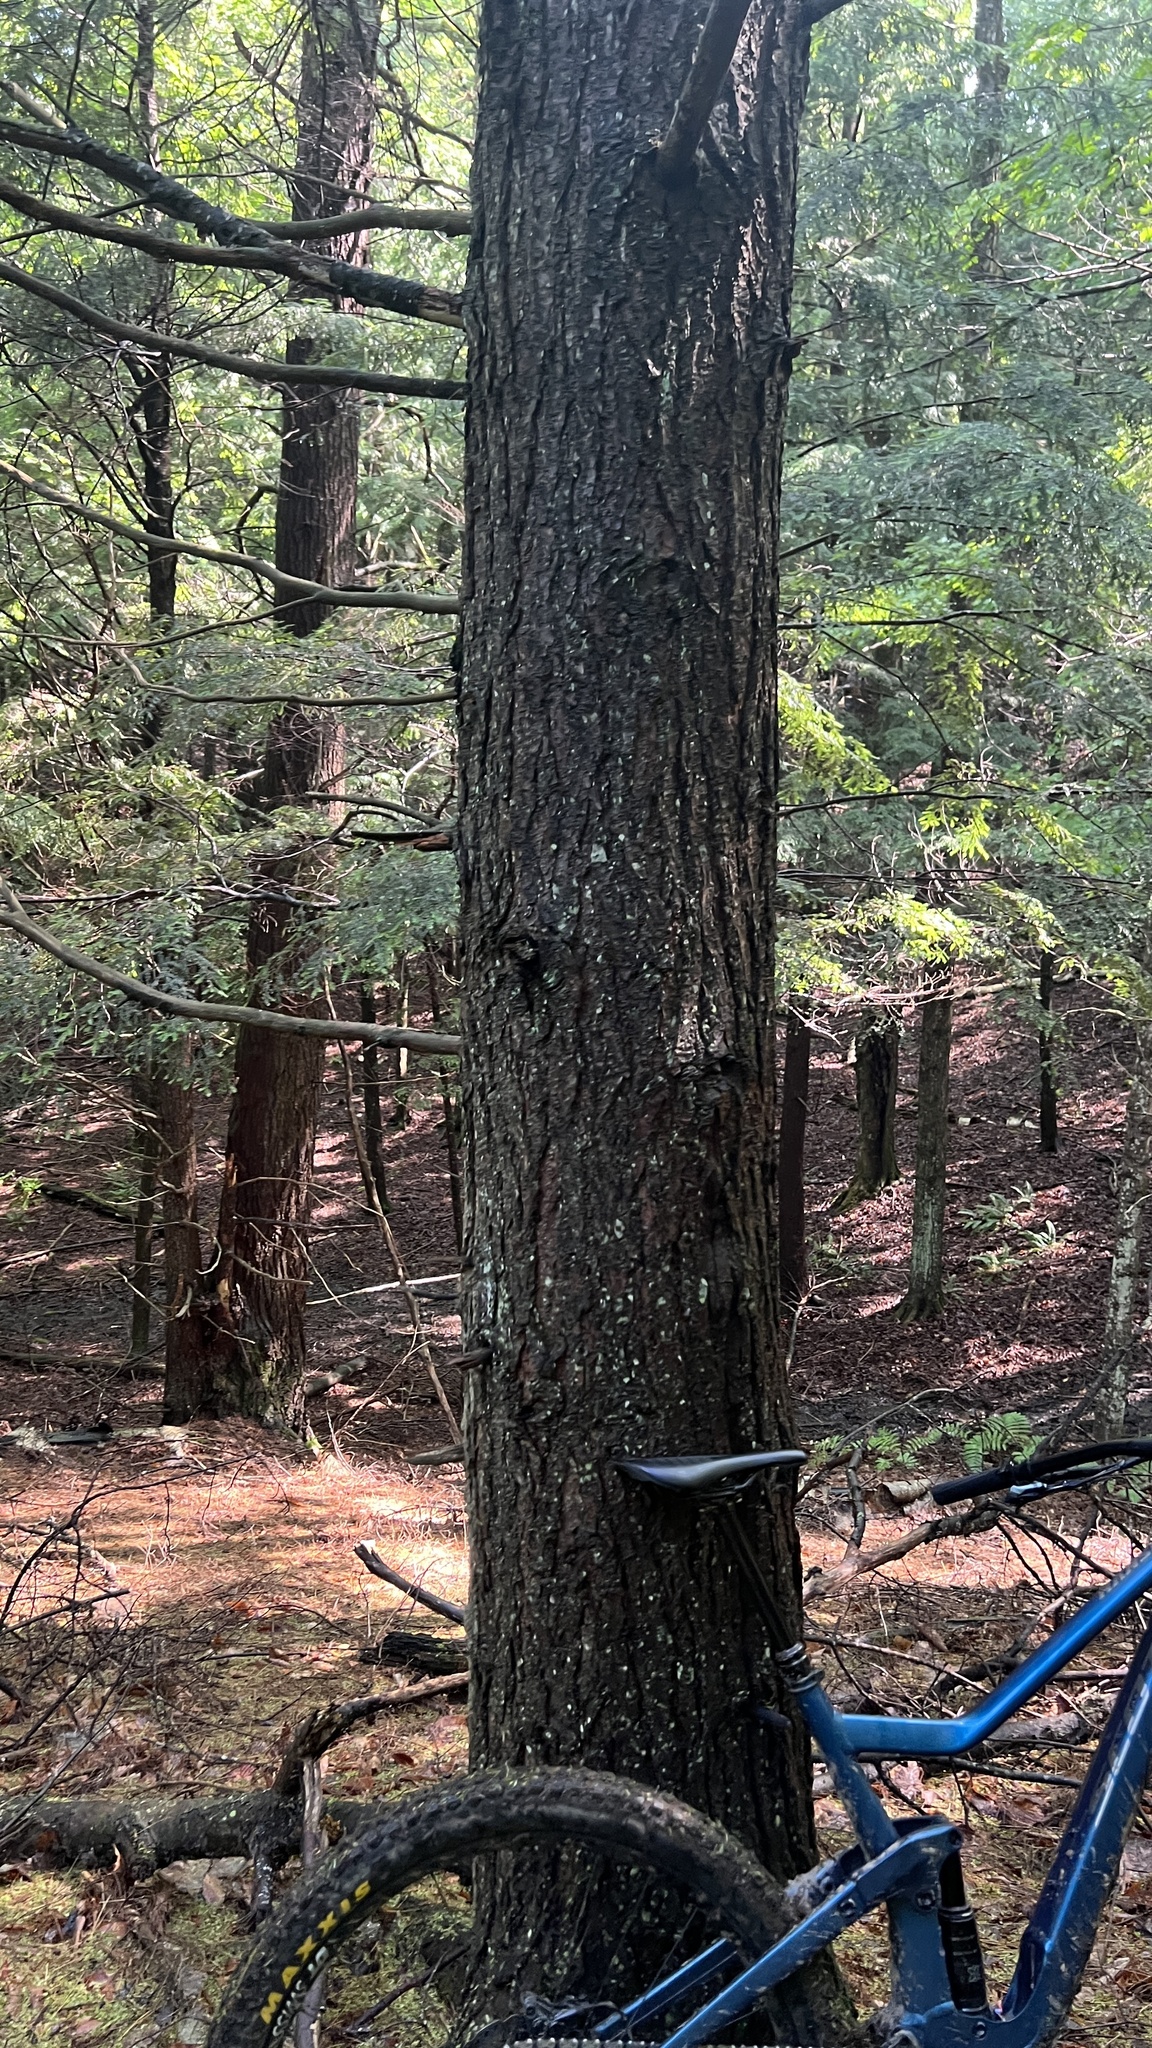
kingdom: Plantae
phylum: Tracheophyta
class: Pinopsida
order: Pinales
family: Pinaceae
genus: Tsuga
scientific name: Tsuga canadensis
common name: Eastern hemlock
